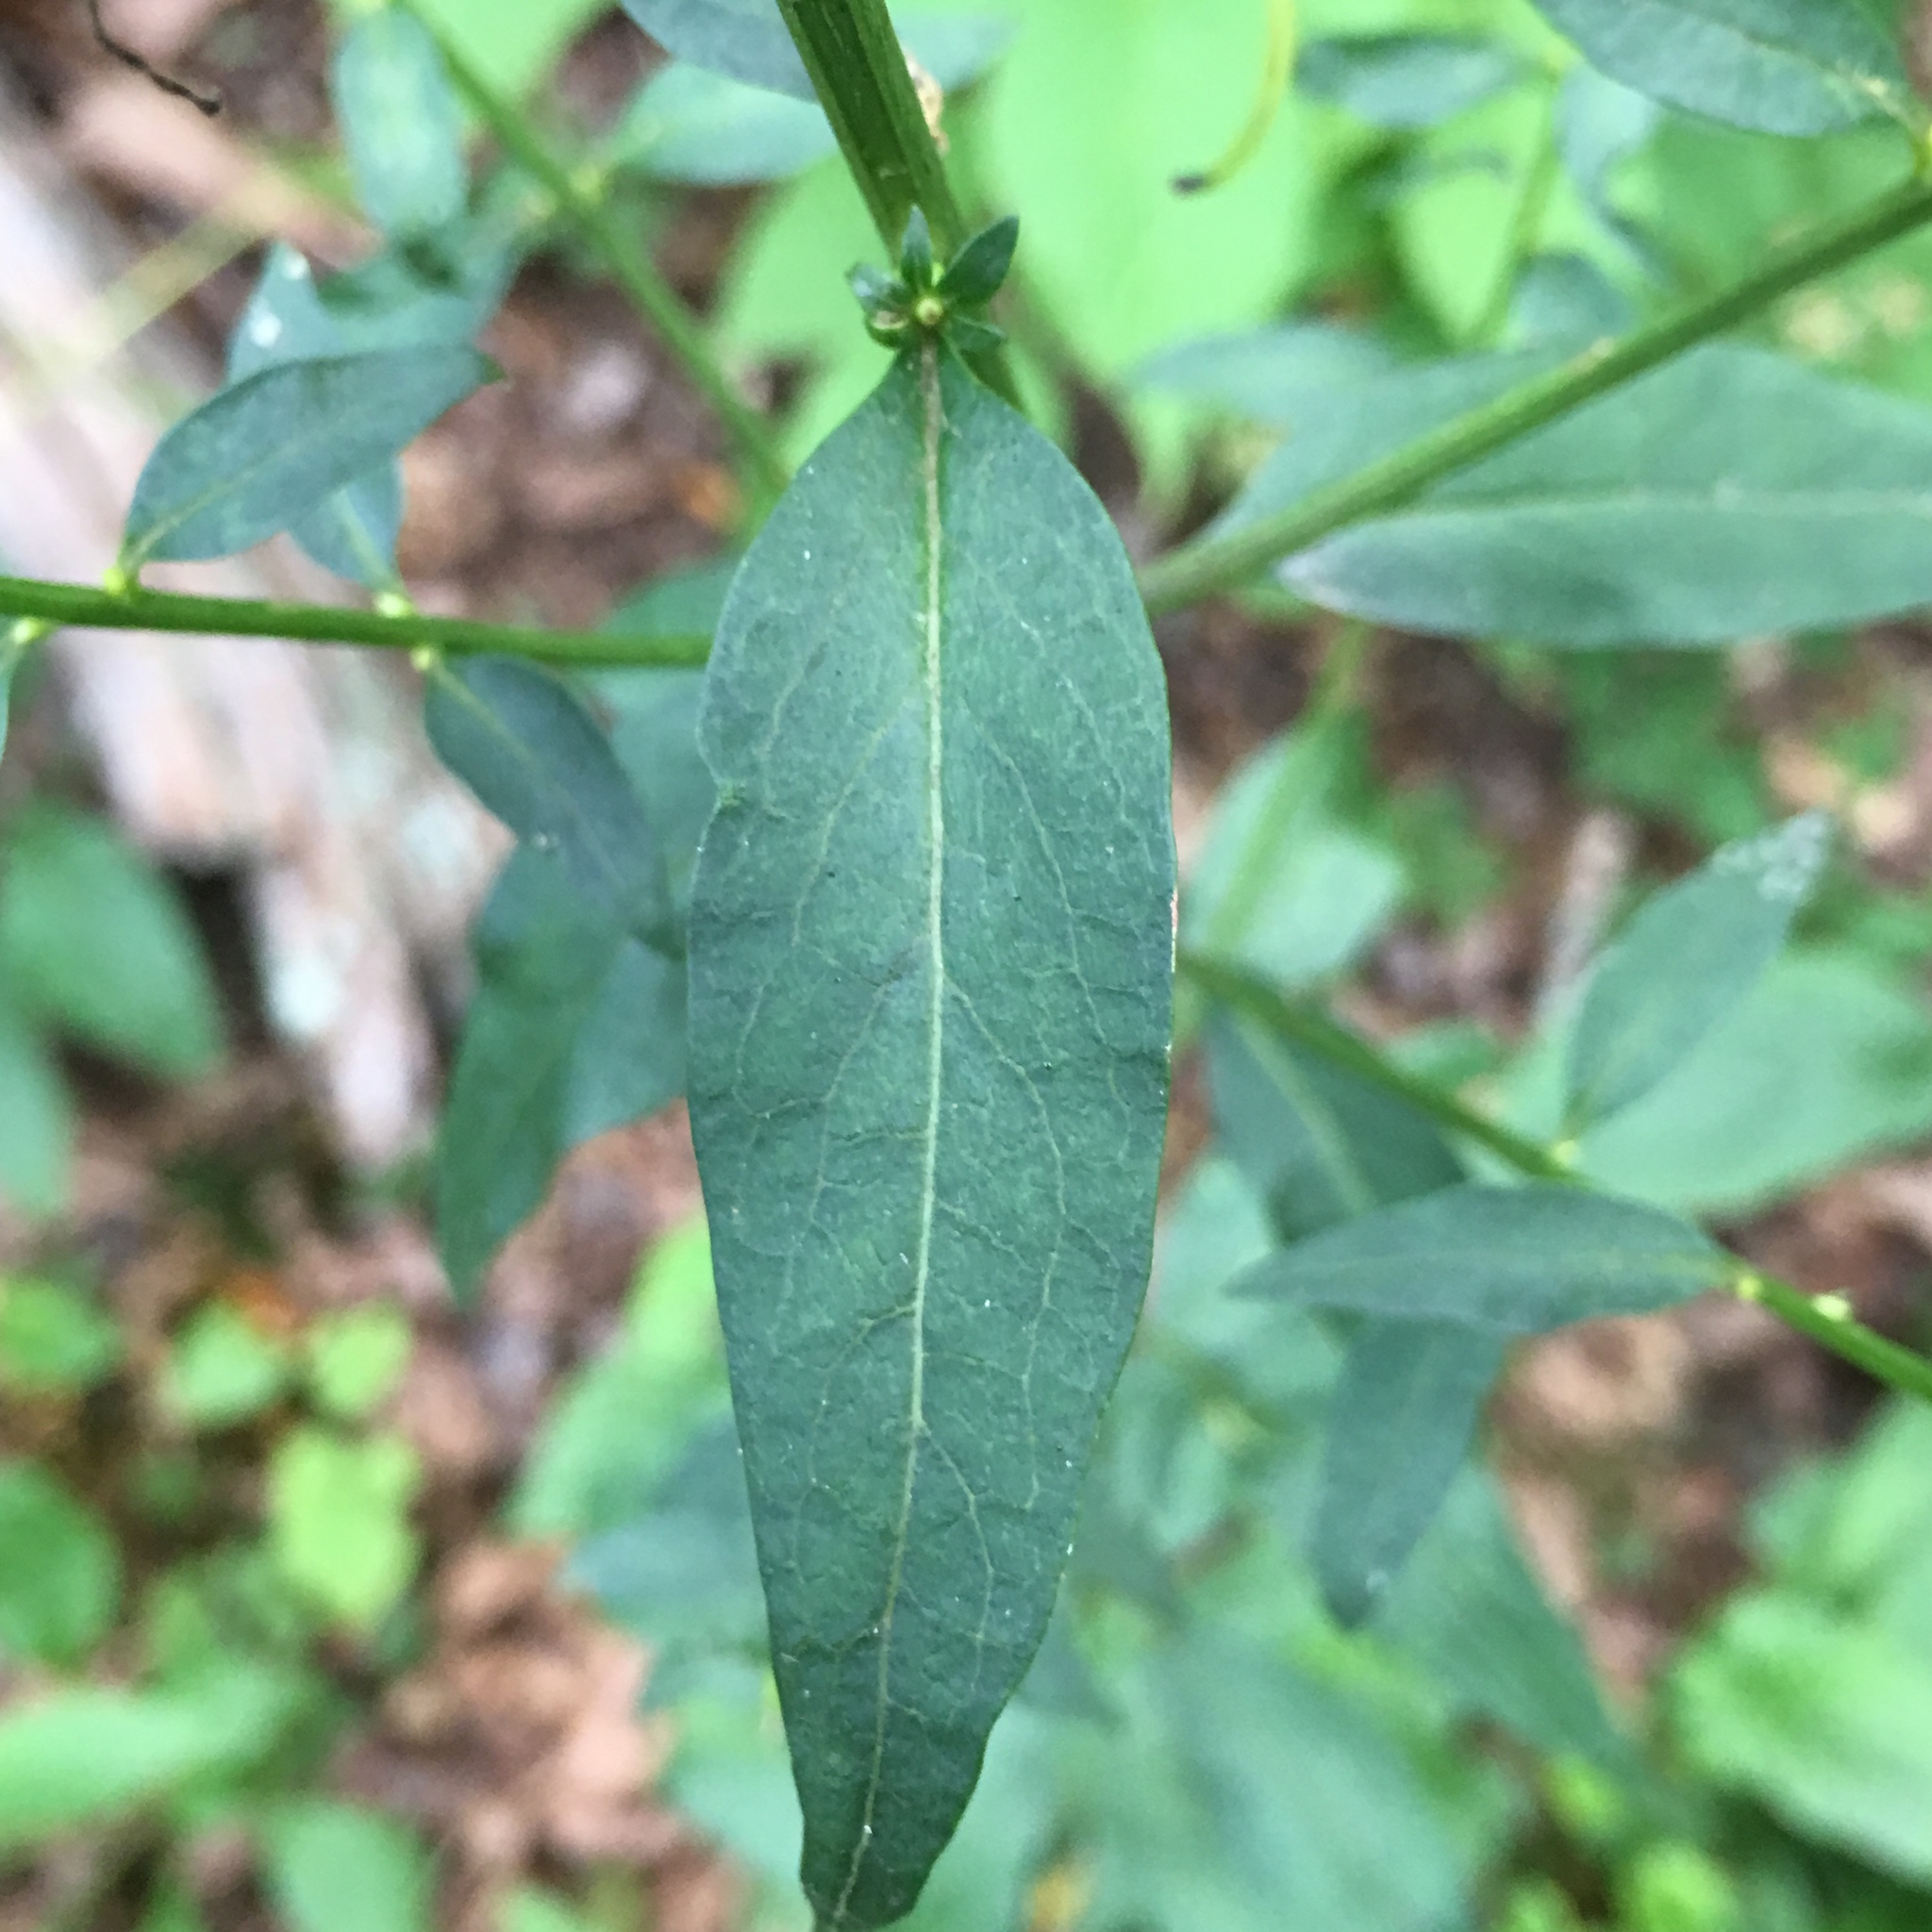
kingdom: Plantae
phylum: Tracheophyta
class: Magnoliopsida
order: Lamiales
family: Orobanchaceae
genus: Aureolaria
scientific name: Aureolaria levigata
